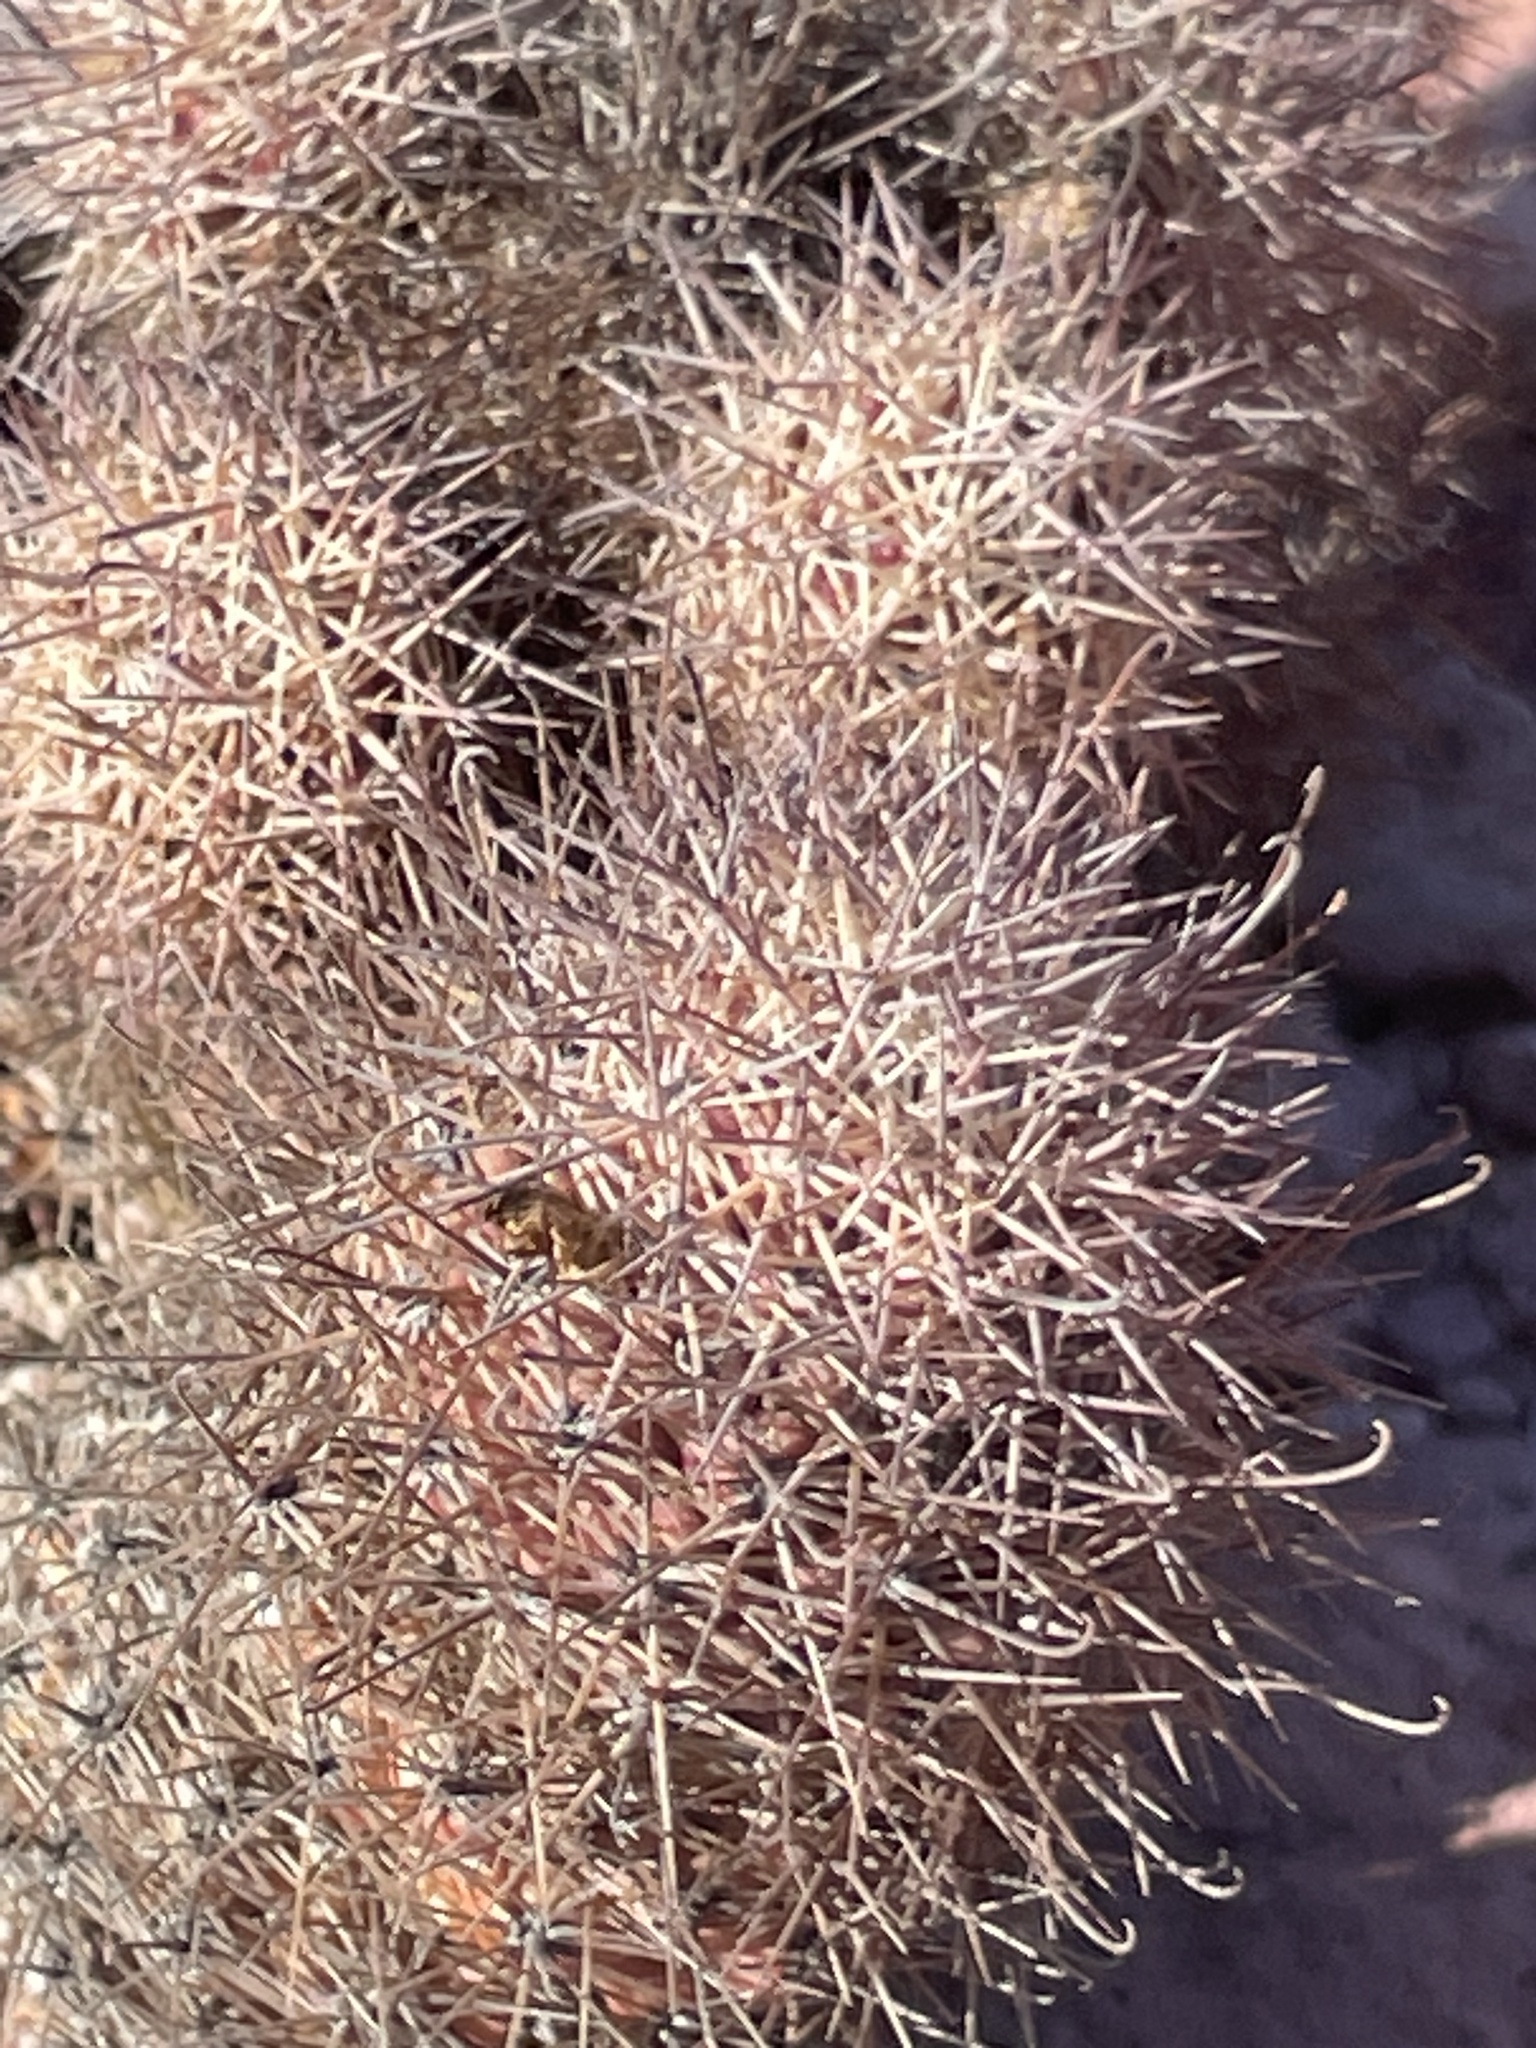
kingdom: Plantae
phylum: Tracheophyta
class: Magnoliopsida
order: Caryophyllales
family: Cactaceae
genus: Cochemiea
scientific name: Cochemiea fraileana
